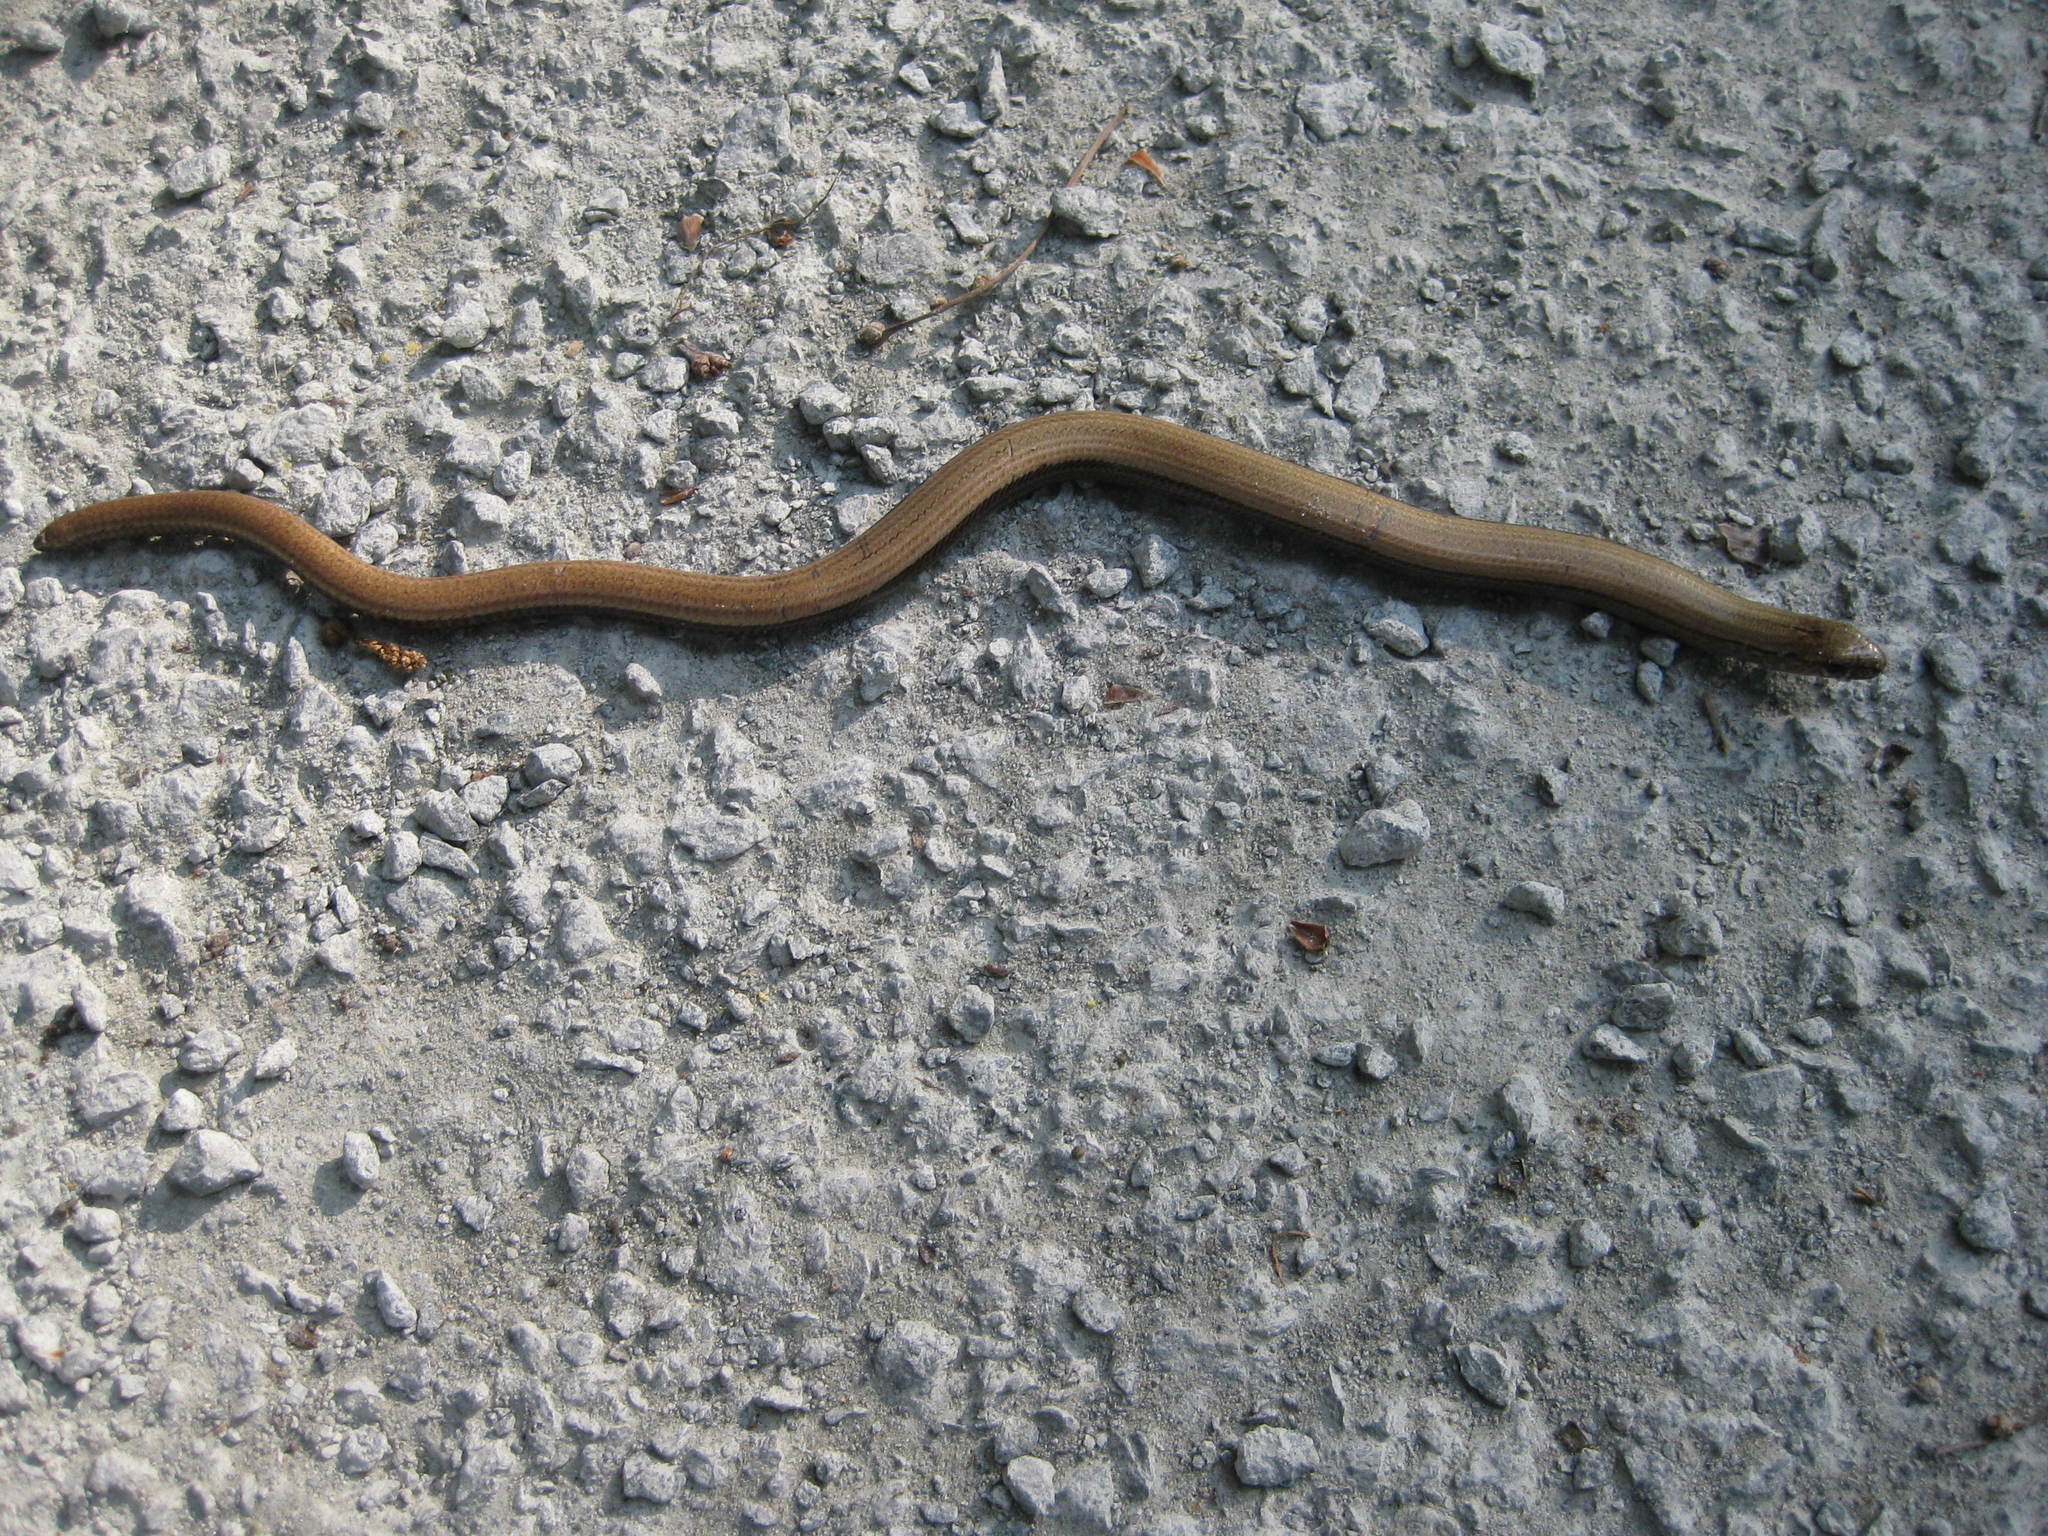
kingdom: Animalia
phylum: Chordata
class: Squamata
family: Anguidae
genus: Anguis
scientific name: Anguis fragilis
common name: Slow worm
